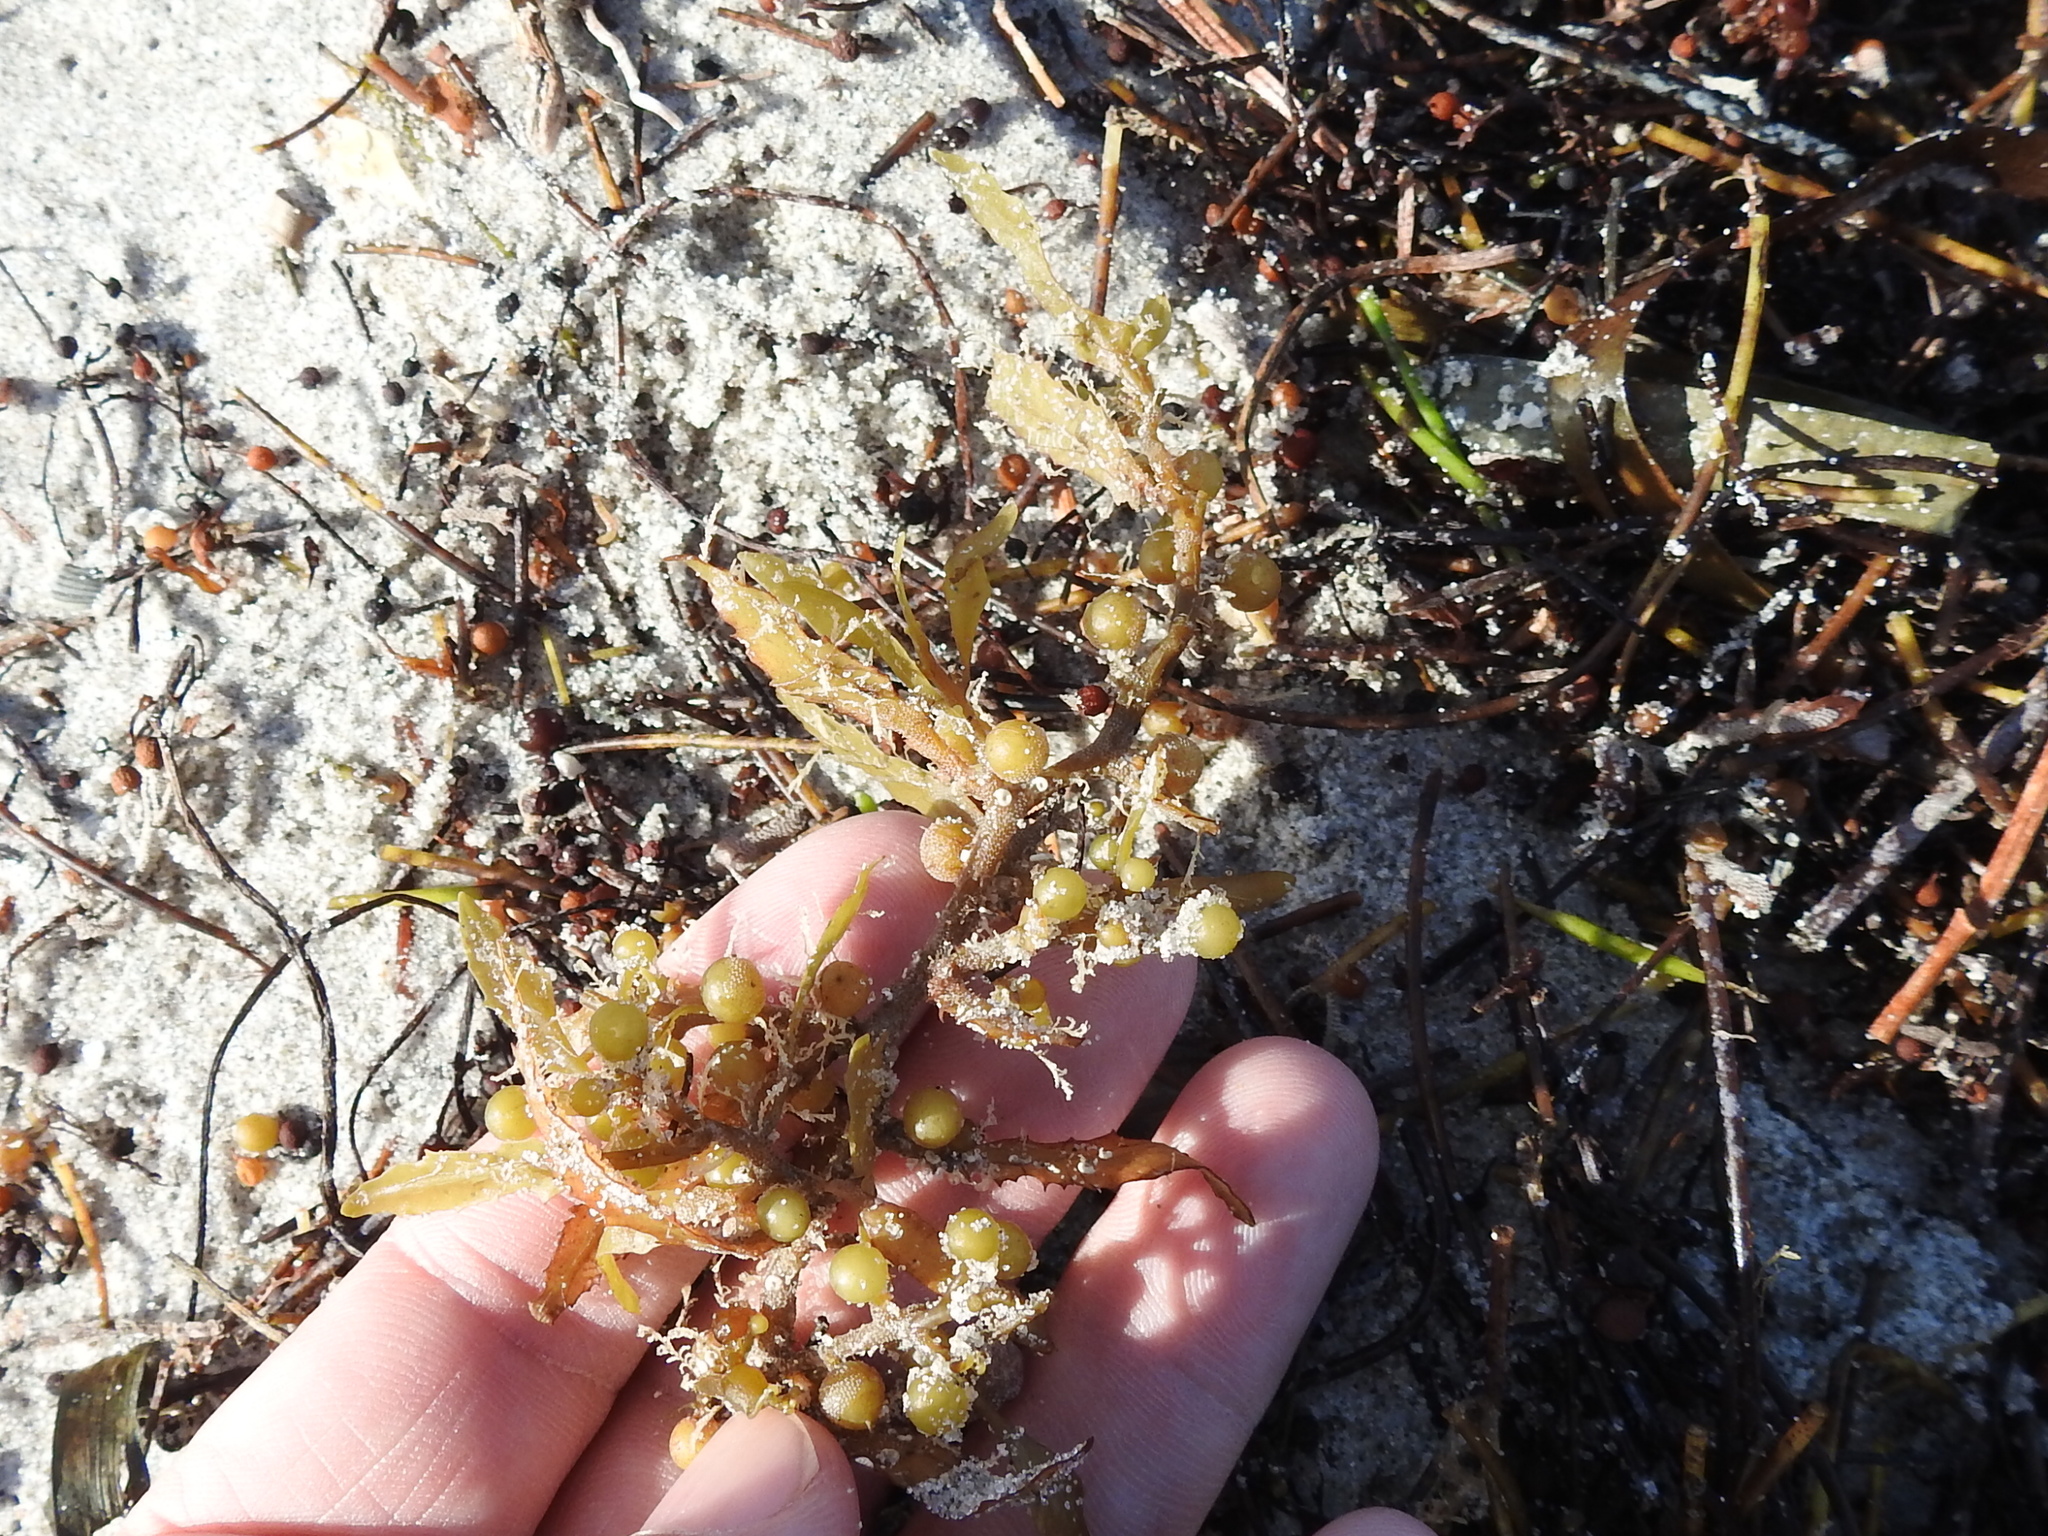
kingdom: Chromista
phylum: Ochrophyta
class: Phaeophyceae
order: Fucales
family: Sargassaceae
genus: Sargassum
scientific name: Sargassum fluitans
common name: Sargassum seaweed
